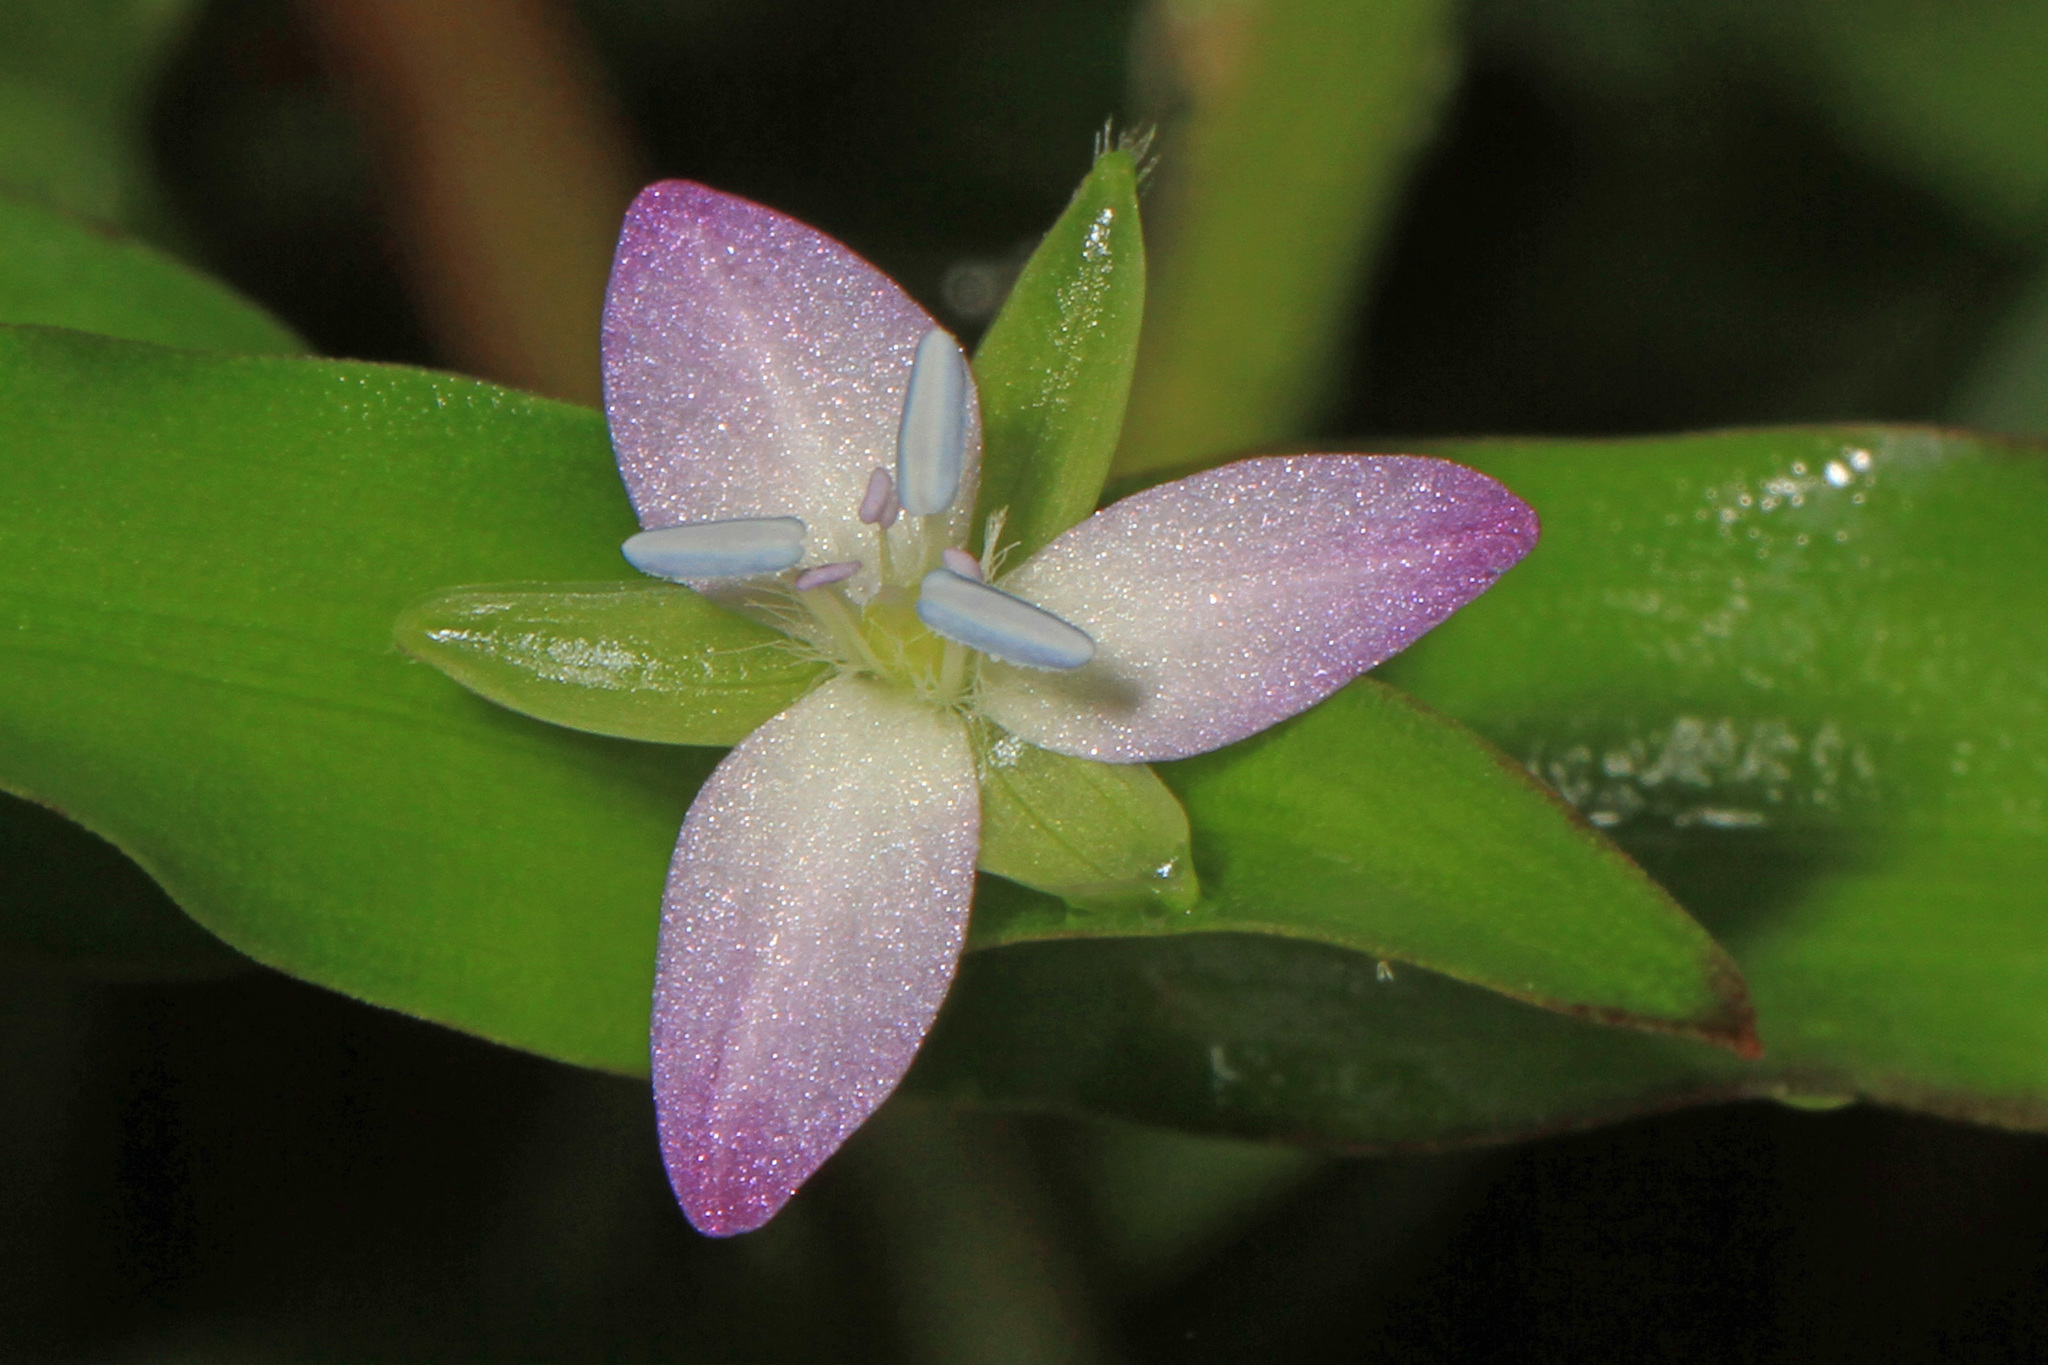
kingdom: Plantae
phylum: Tracheophyta
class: Liliopsida
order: Commelinales
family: Commelinaceae
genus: Murdannia
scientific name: Murdannia keisak
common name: Wartremoving herb
